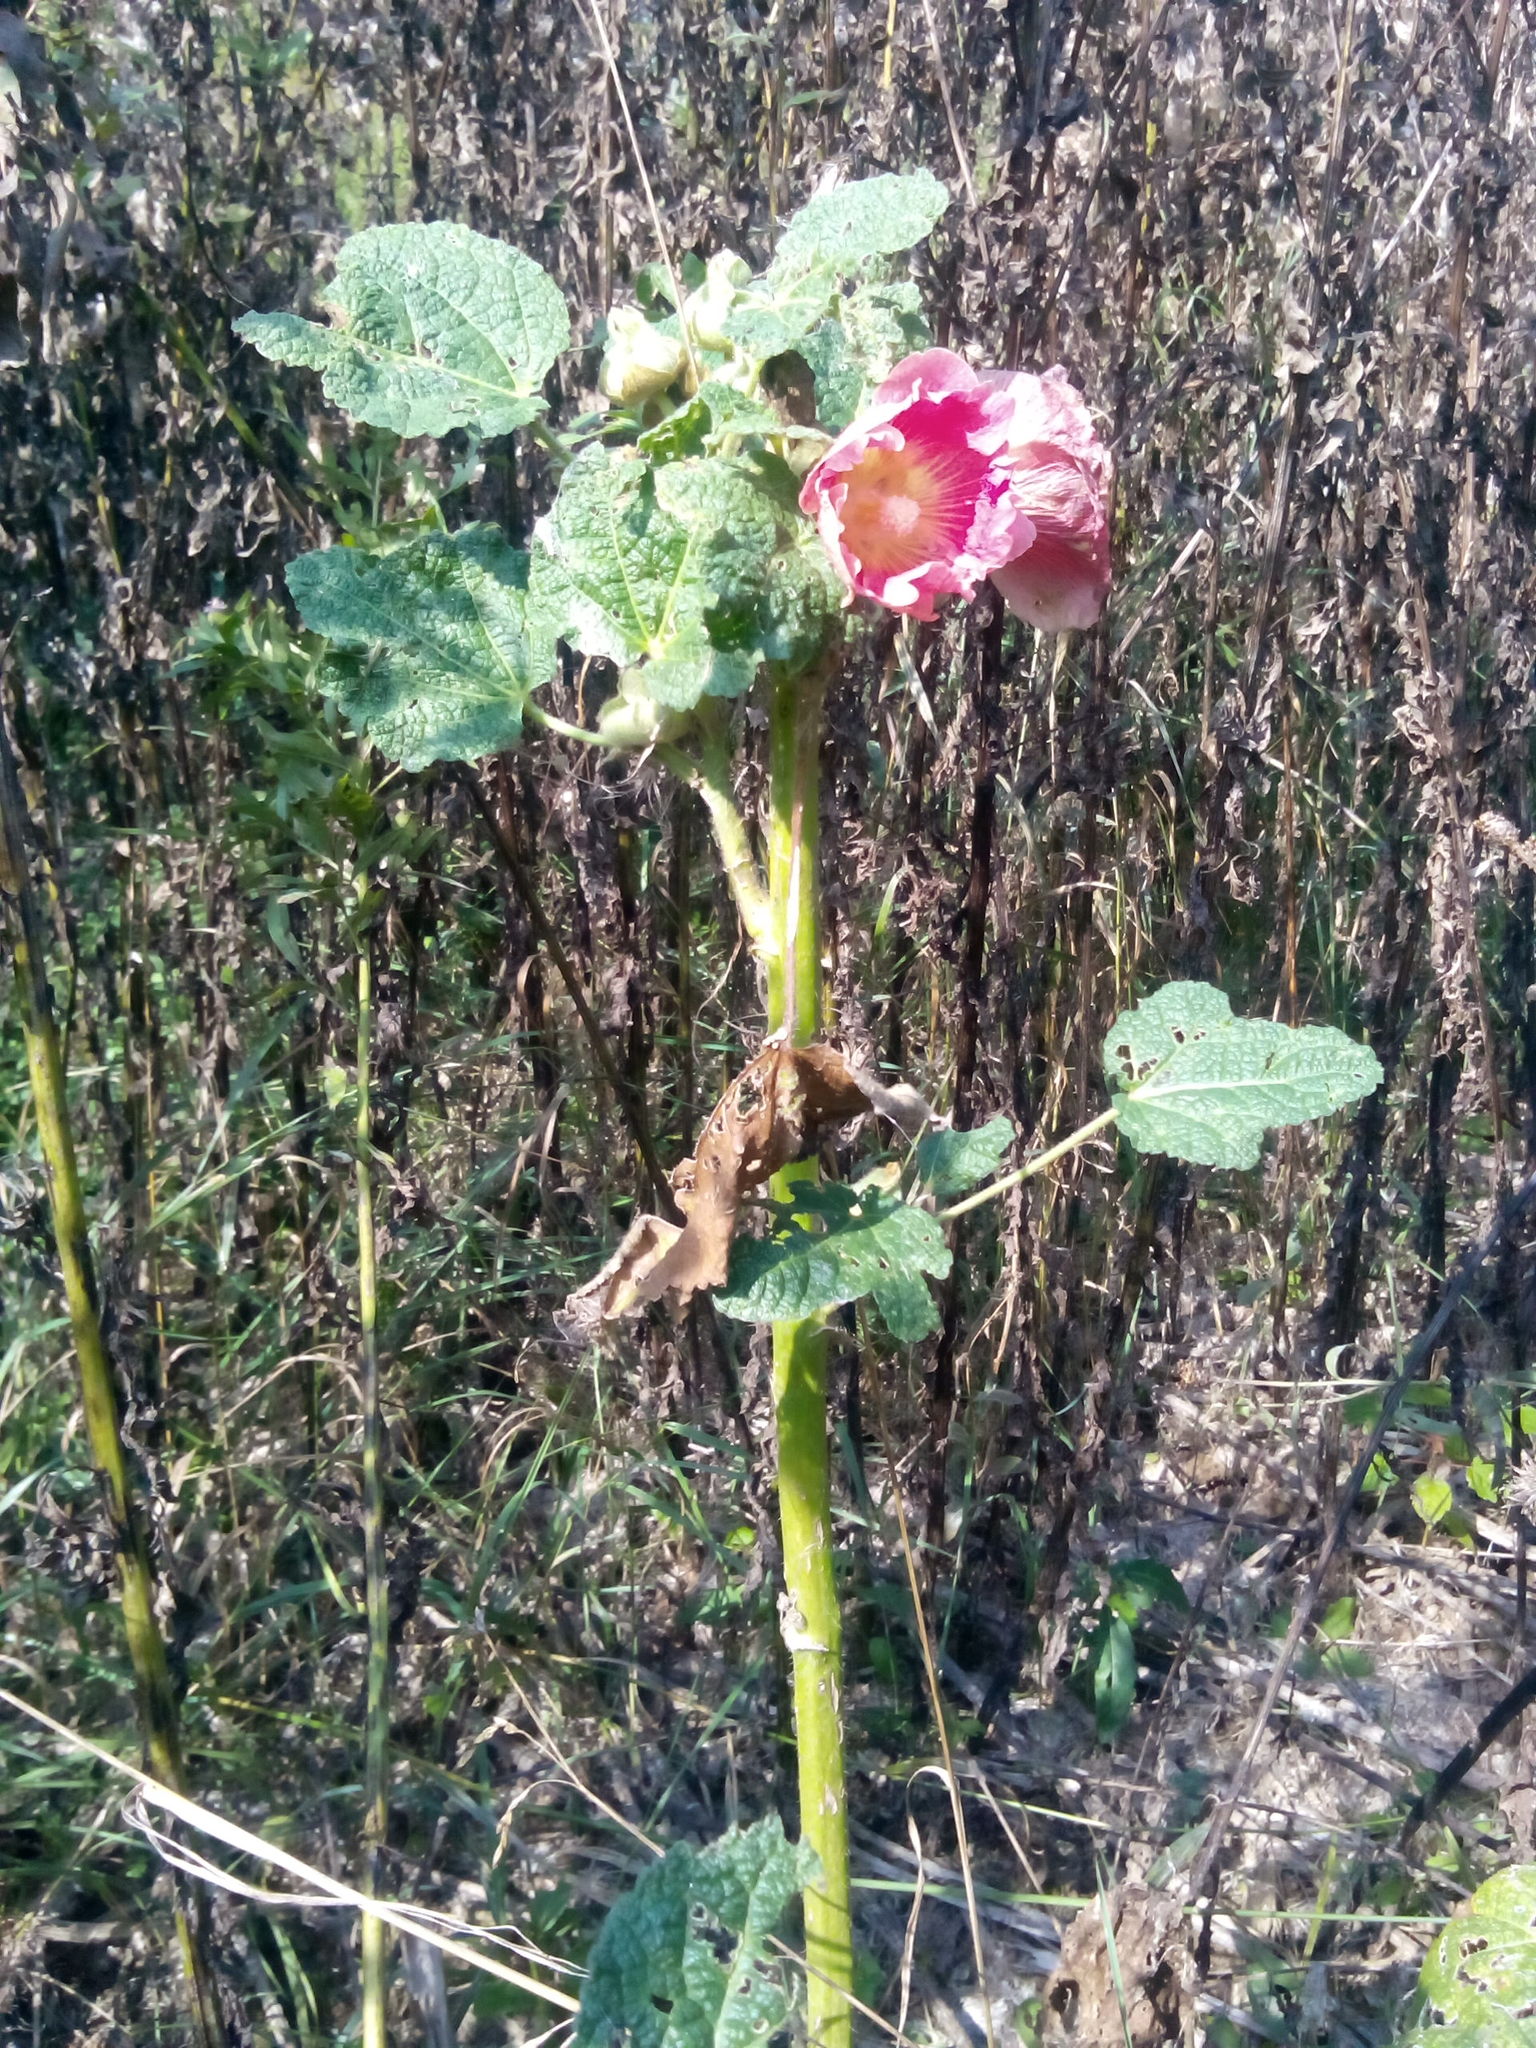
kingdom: Plantae
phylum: Tracheophyta
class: Magnoliopsida
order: Malvales
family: Malvaceae
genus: Alcea
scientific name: Alcea rosea
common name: Hollyhock
